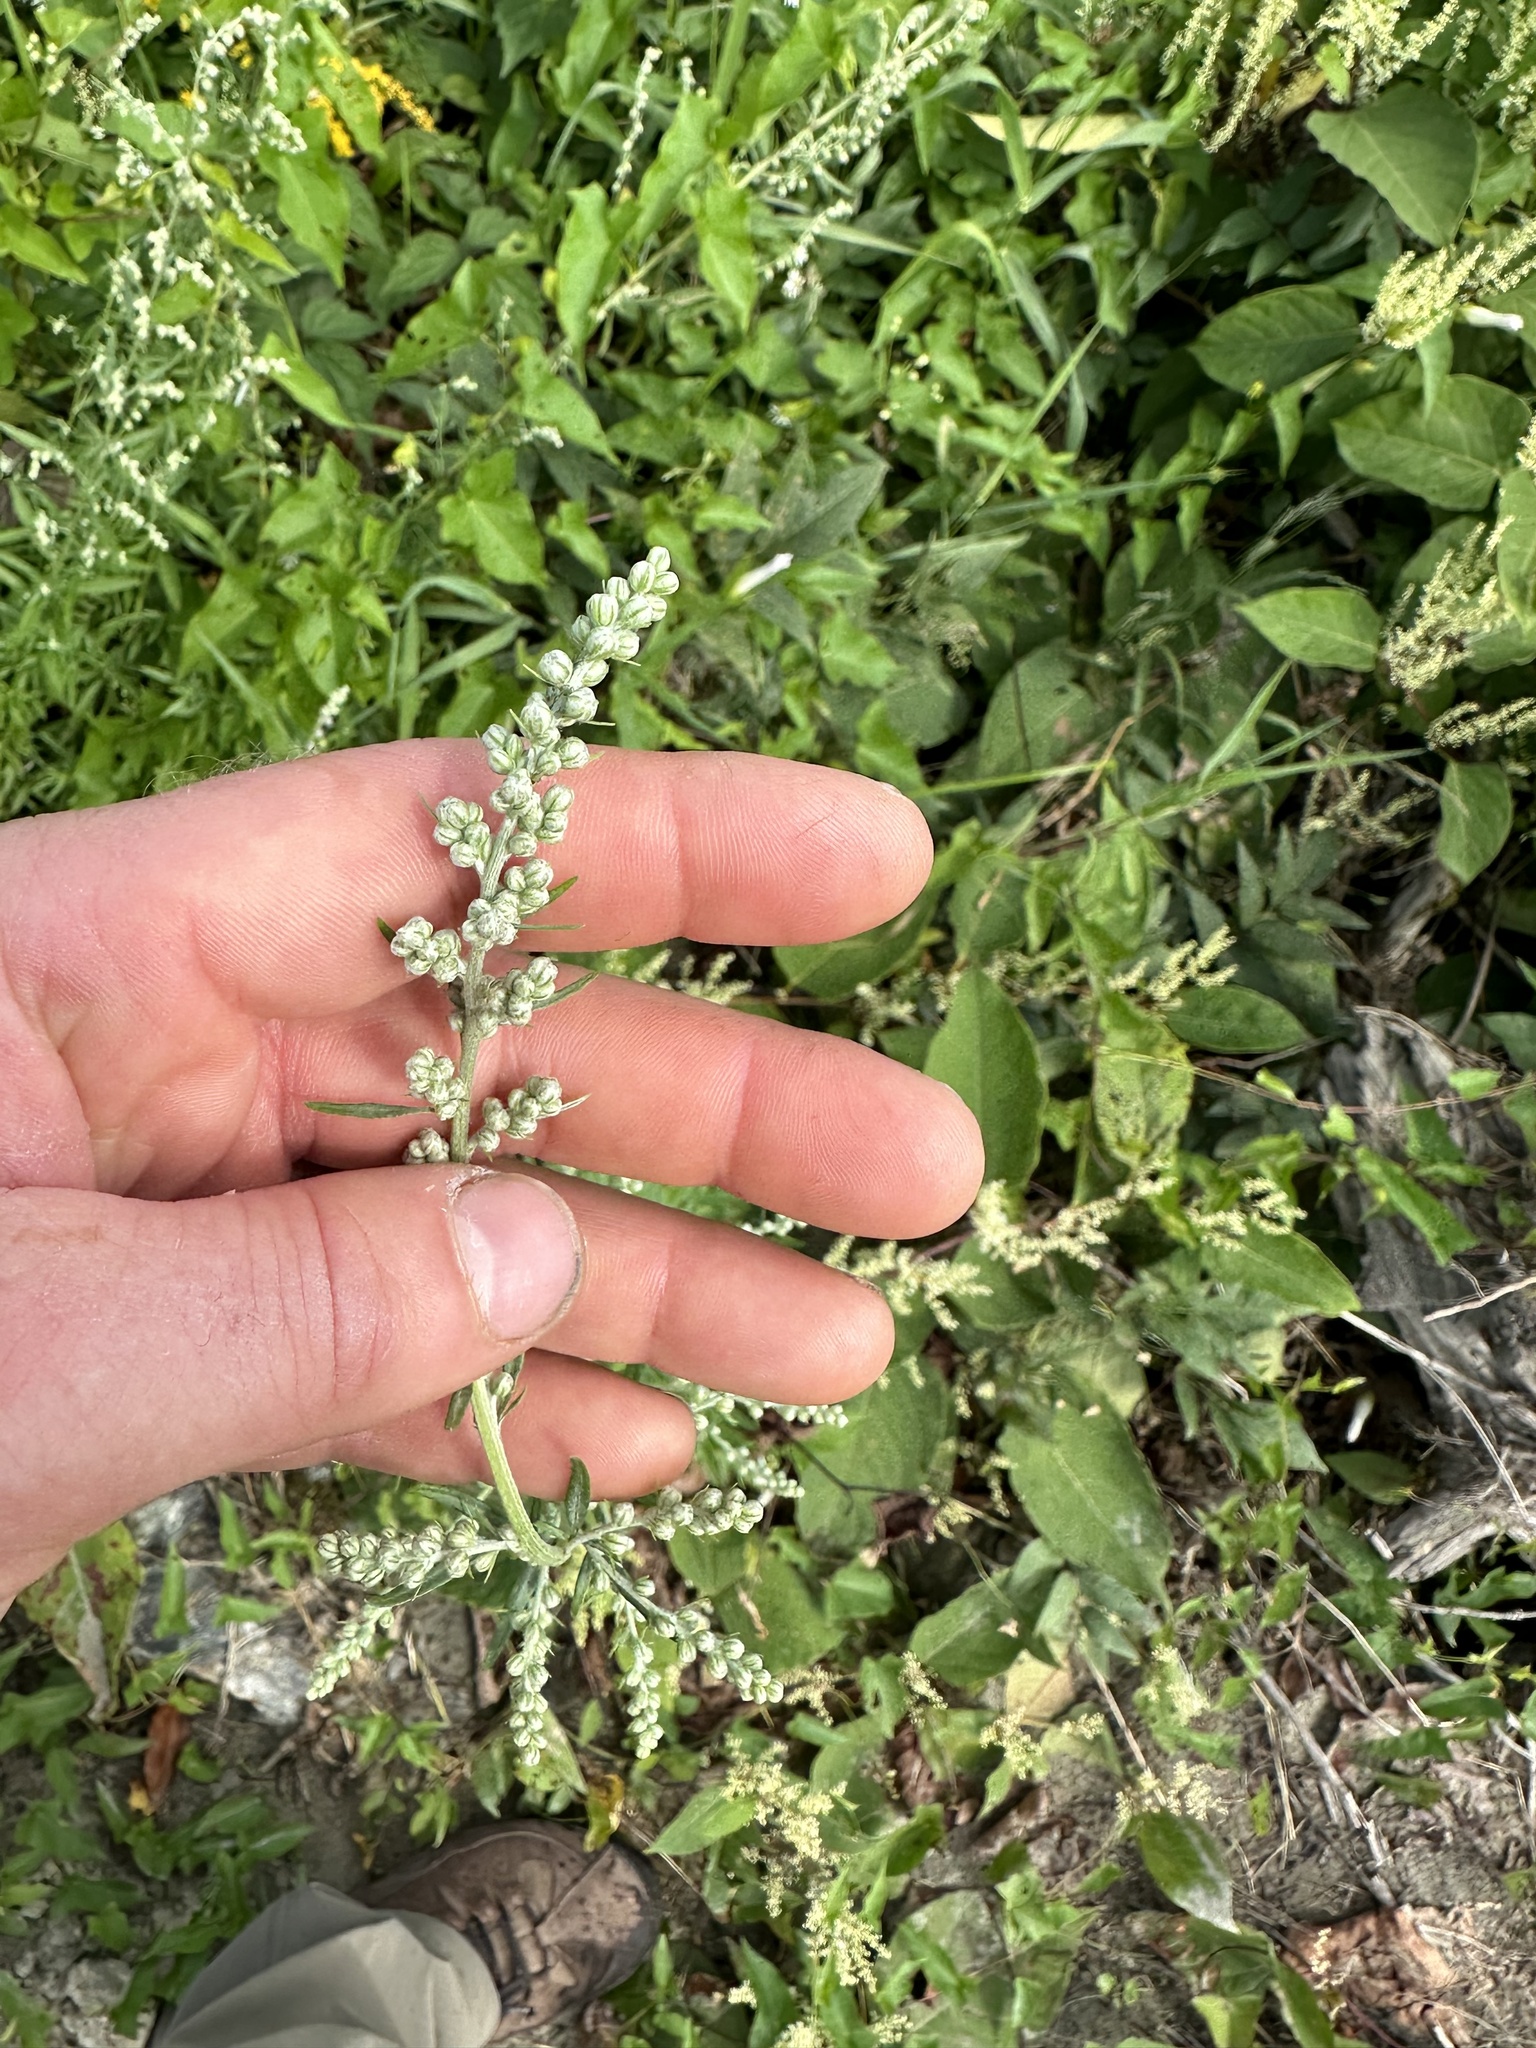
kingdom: Plantae
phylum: Tracheophyta
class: Magnoliopsida
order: Asterales
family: Asteraceae
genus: Artemisia
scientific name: Artemisia vulgaris
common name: Mugwort
